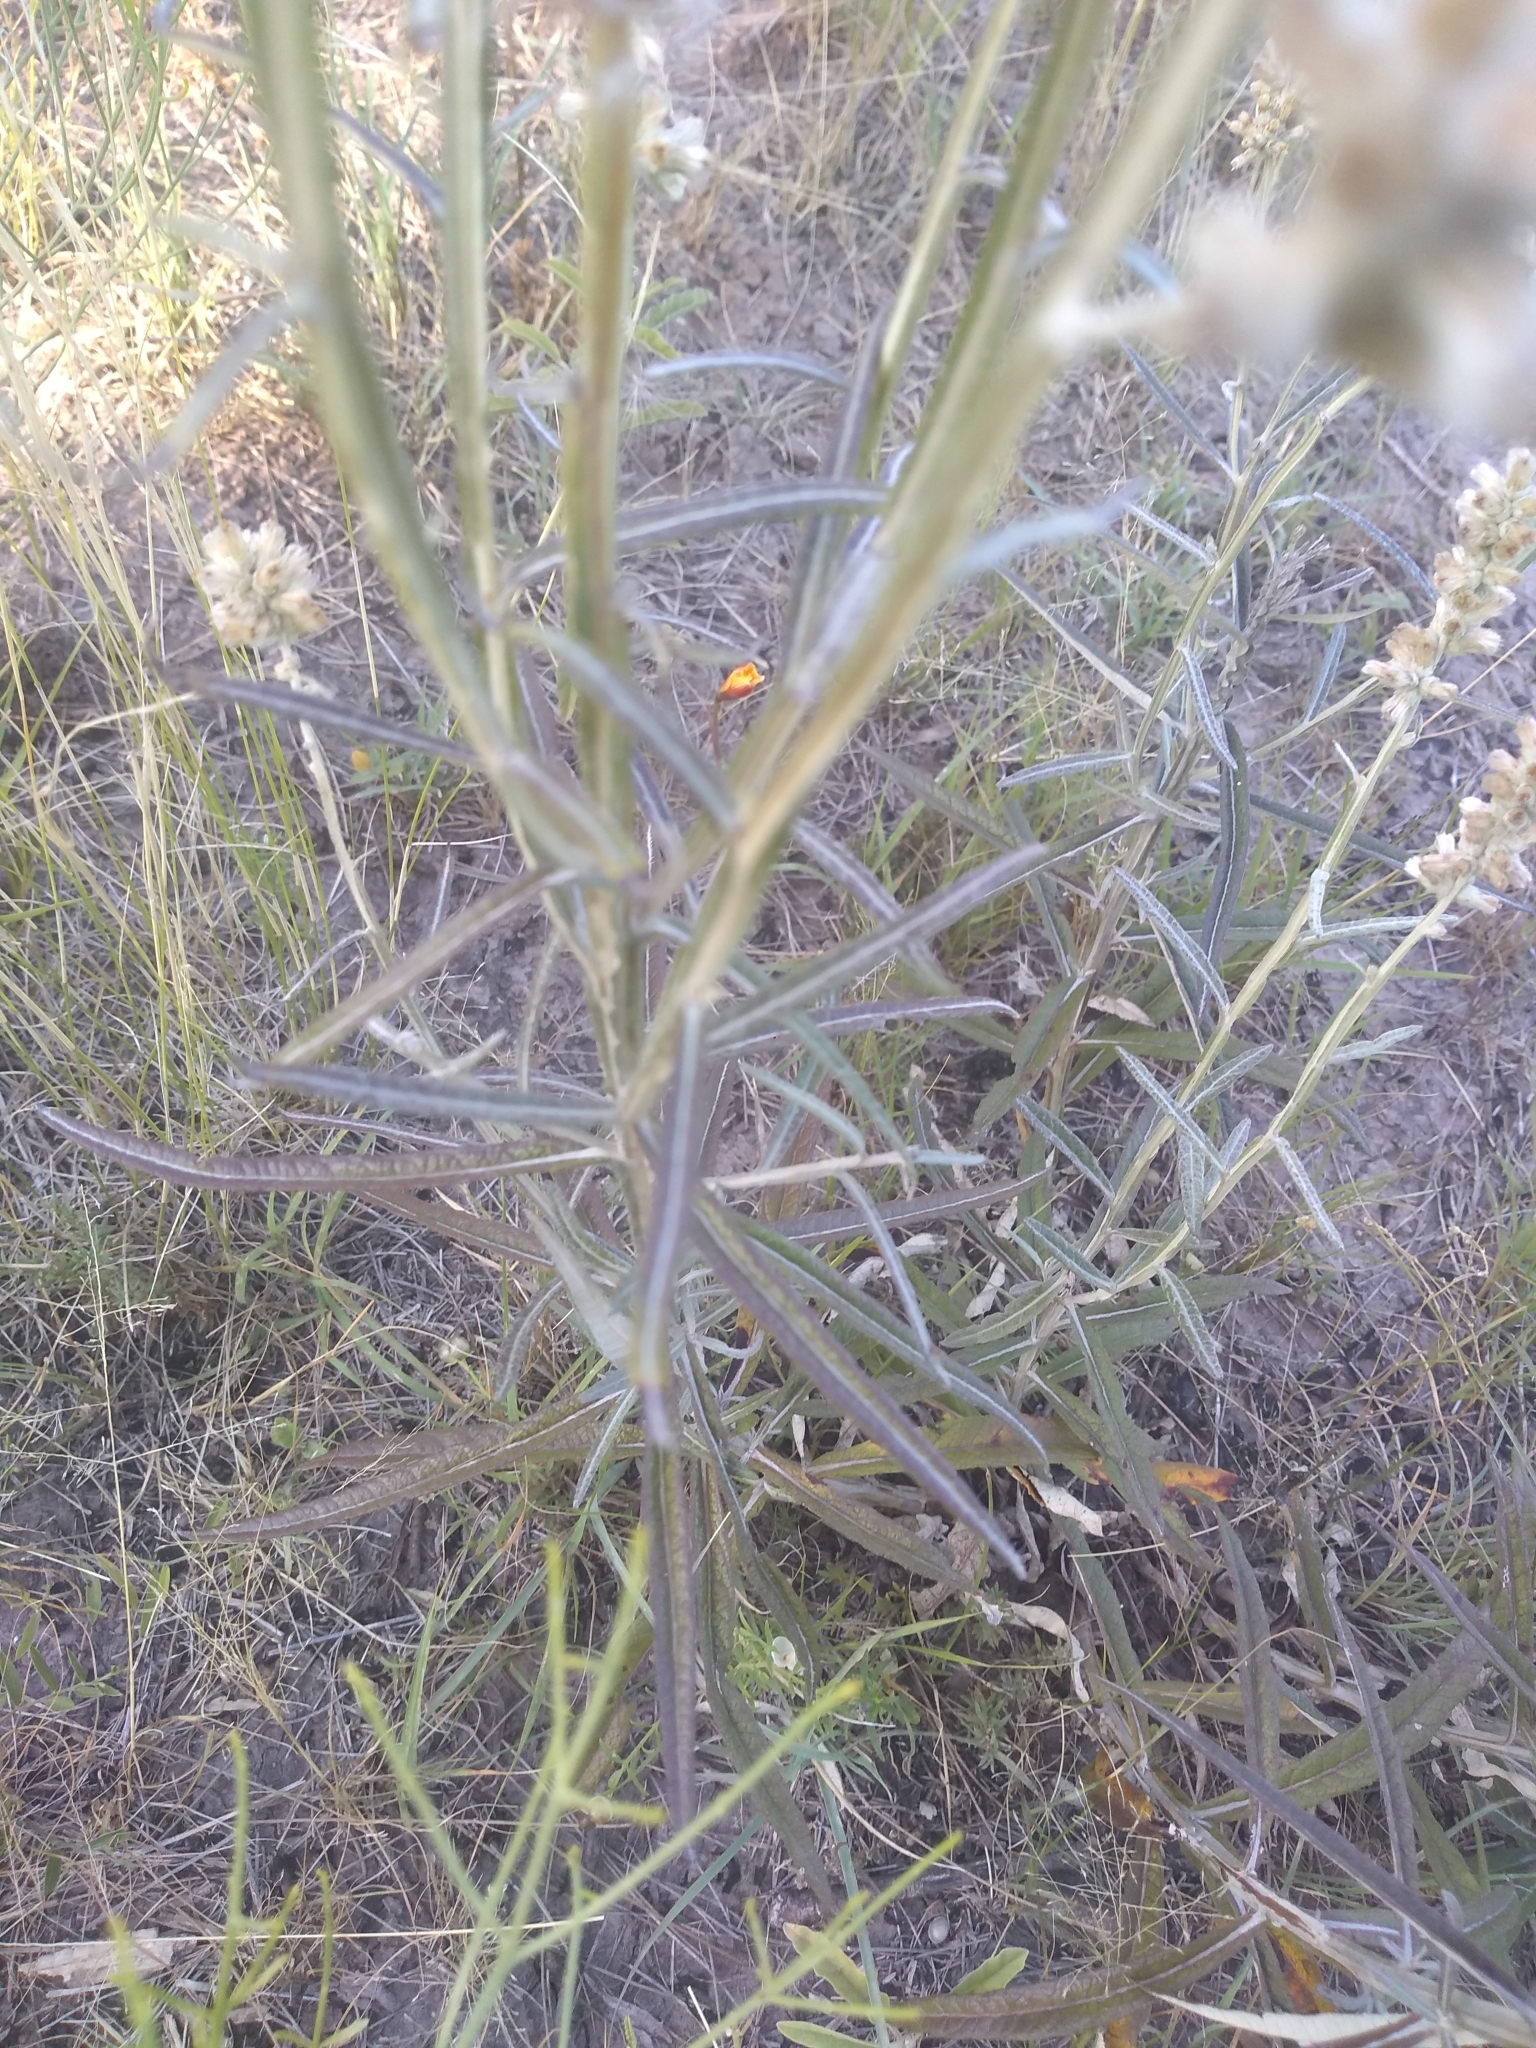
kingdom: Plantae
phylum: Tracheophyta
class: Magnoliopsida
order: Asterales
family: Asteraceae
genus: Pterocaulon
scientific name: Pterocaulon virgatum
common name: Wand blackroot
